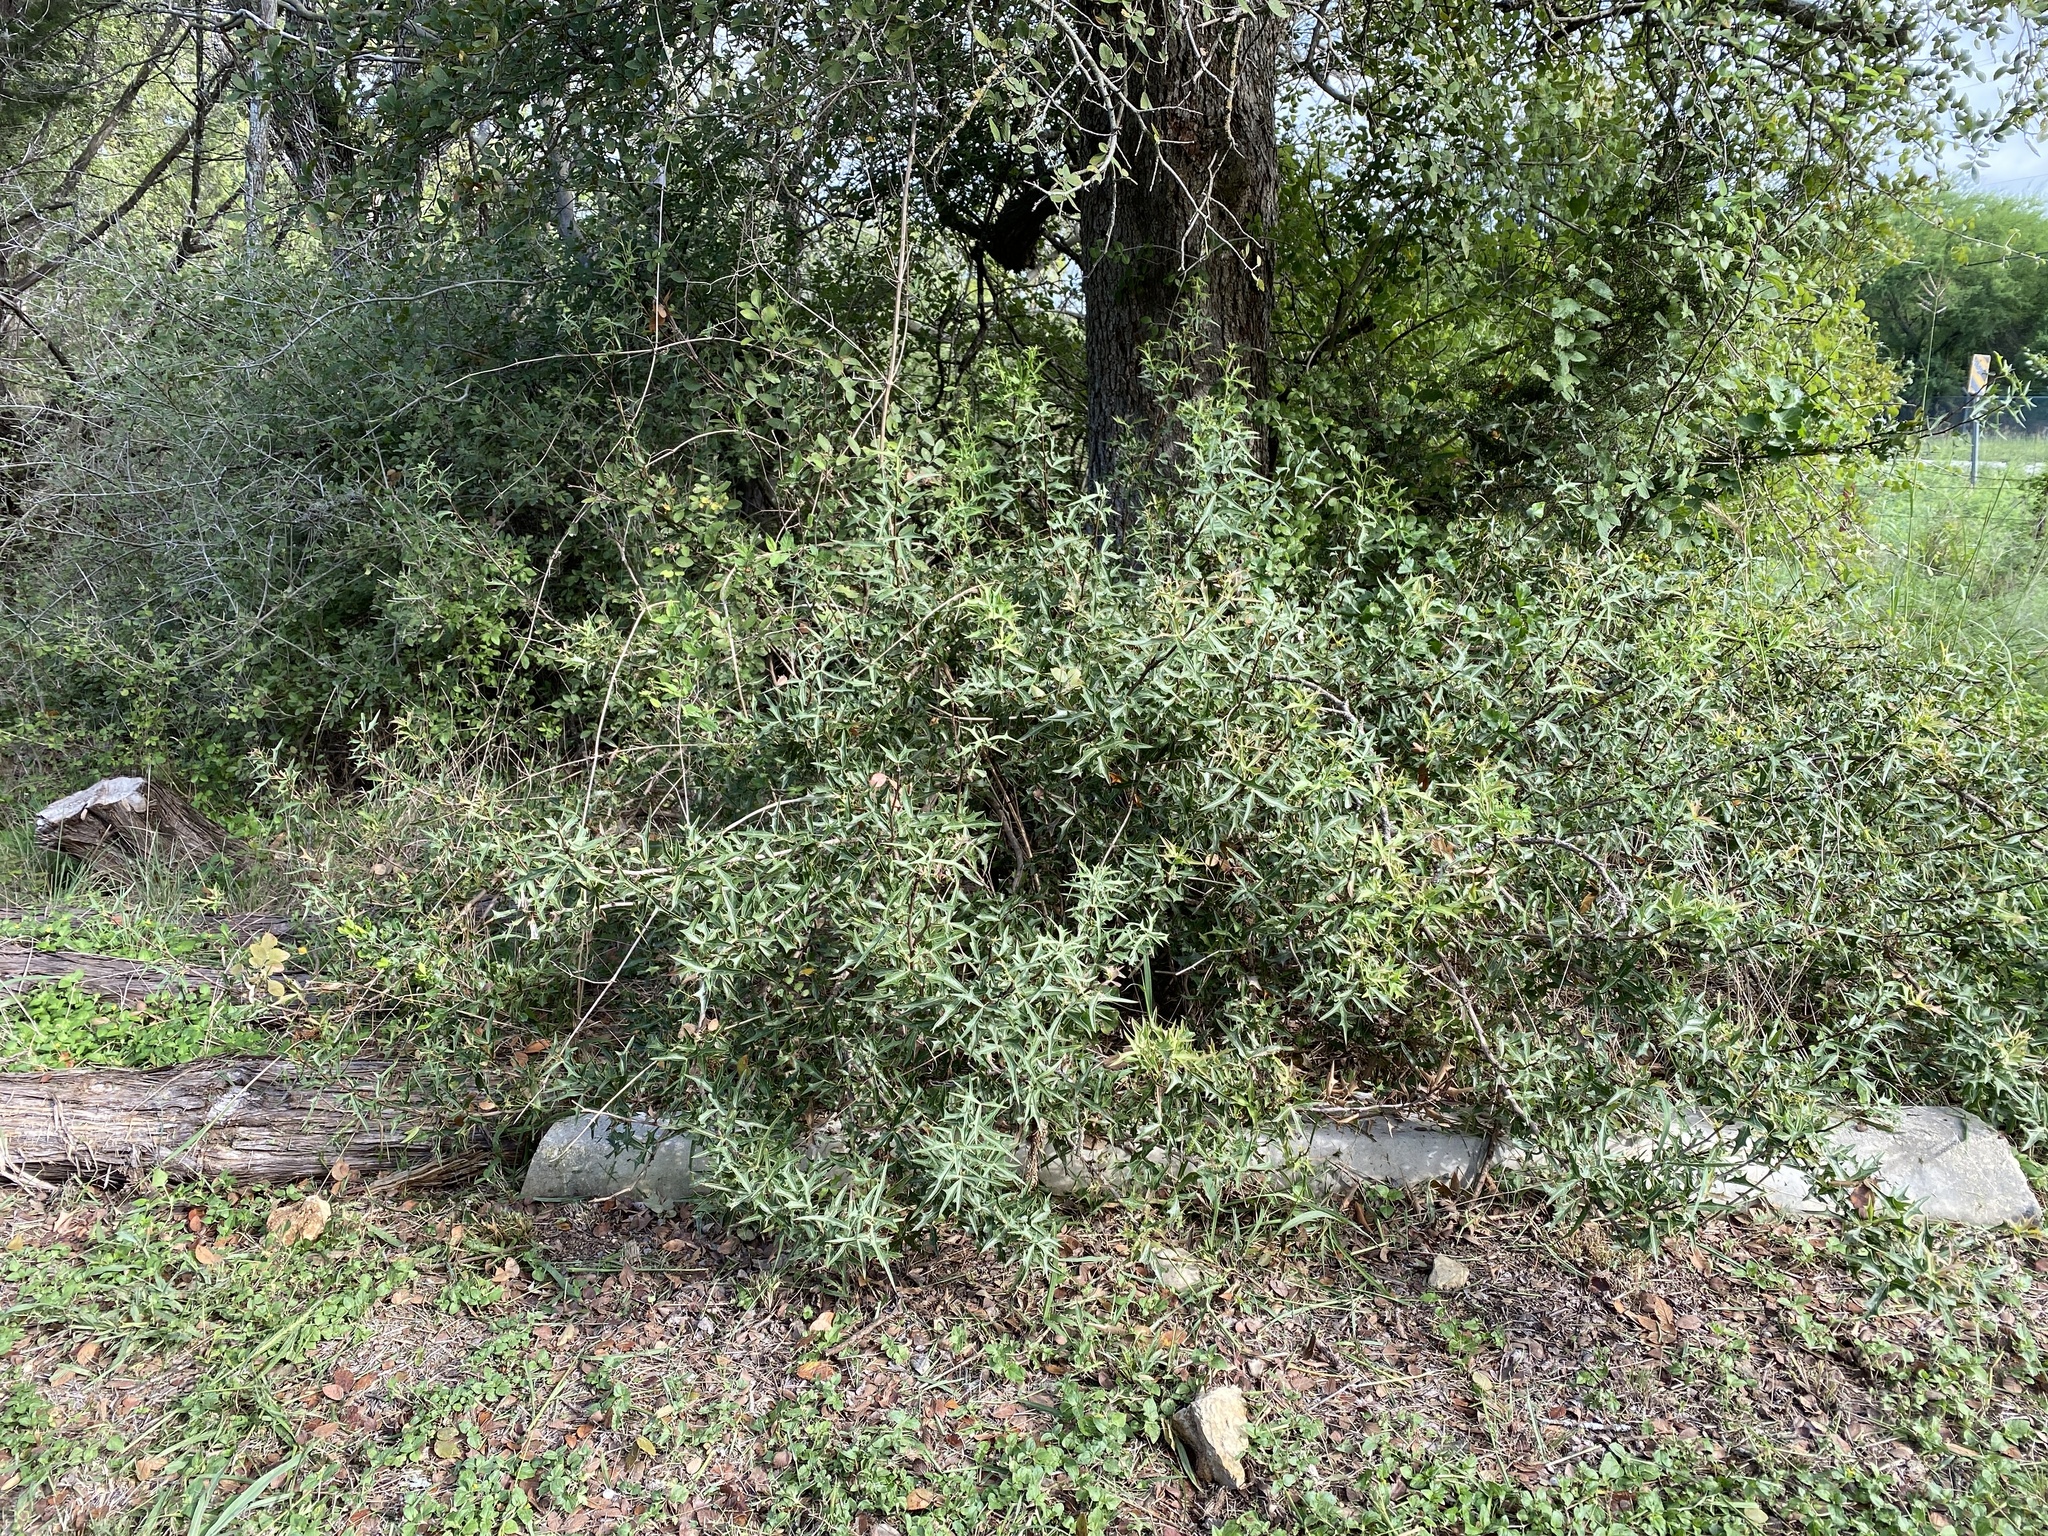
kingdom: Plantae
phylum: Tracheophyta
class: Magnoliopsida
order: Ranunculales
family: Berberidaceae
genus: Alloberberis
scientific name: Alloberberis trifoliolata
